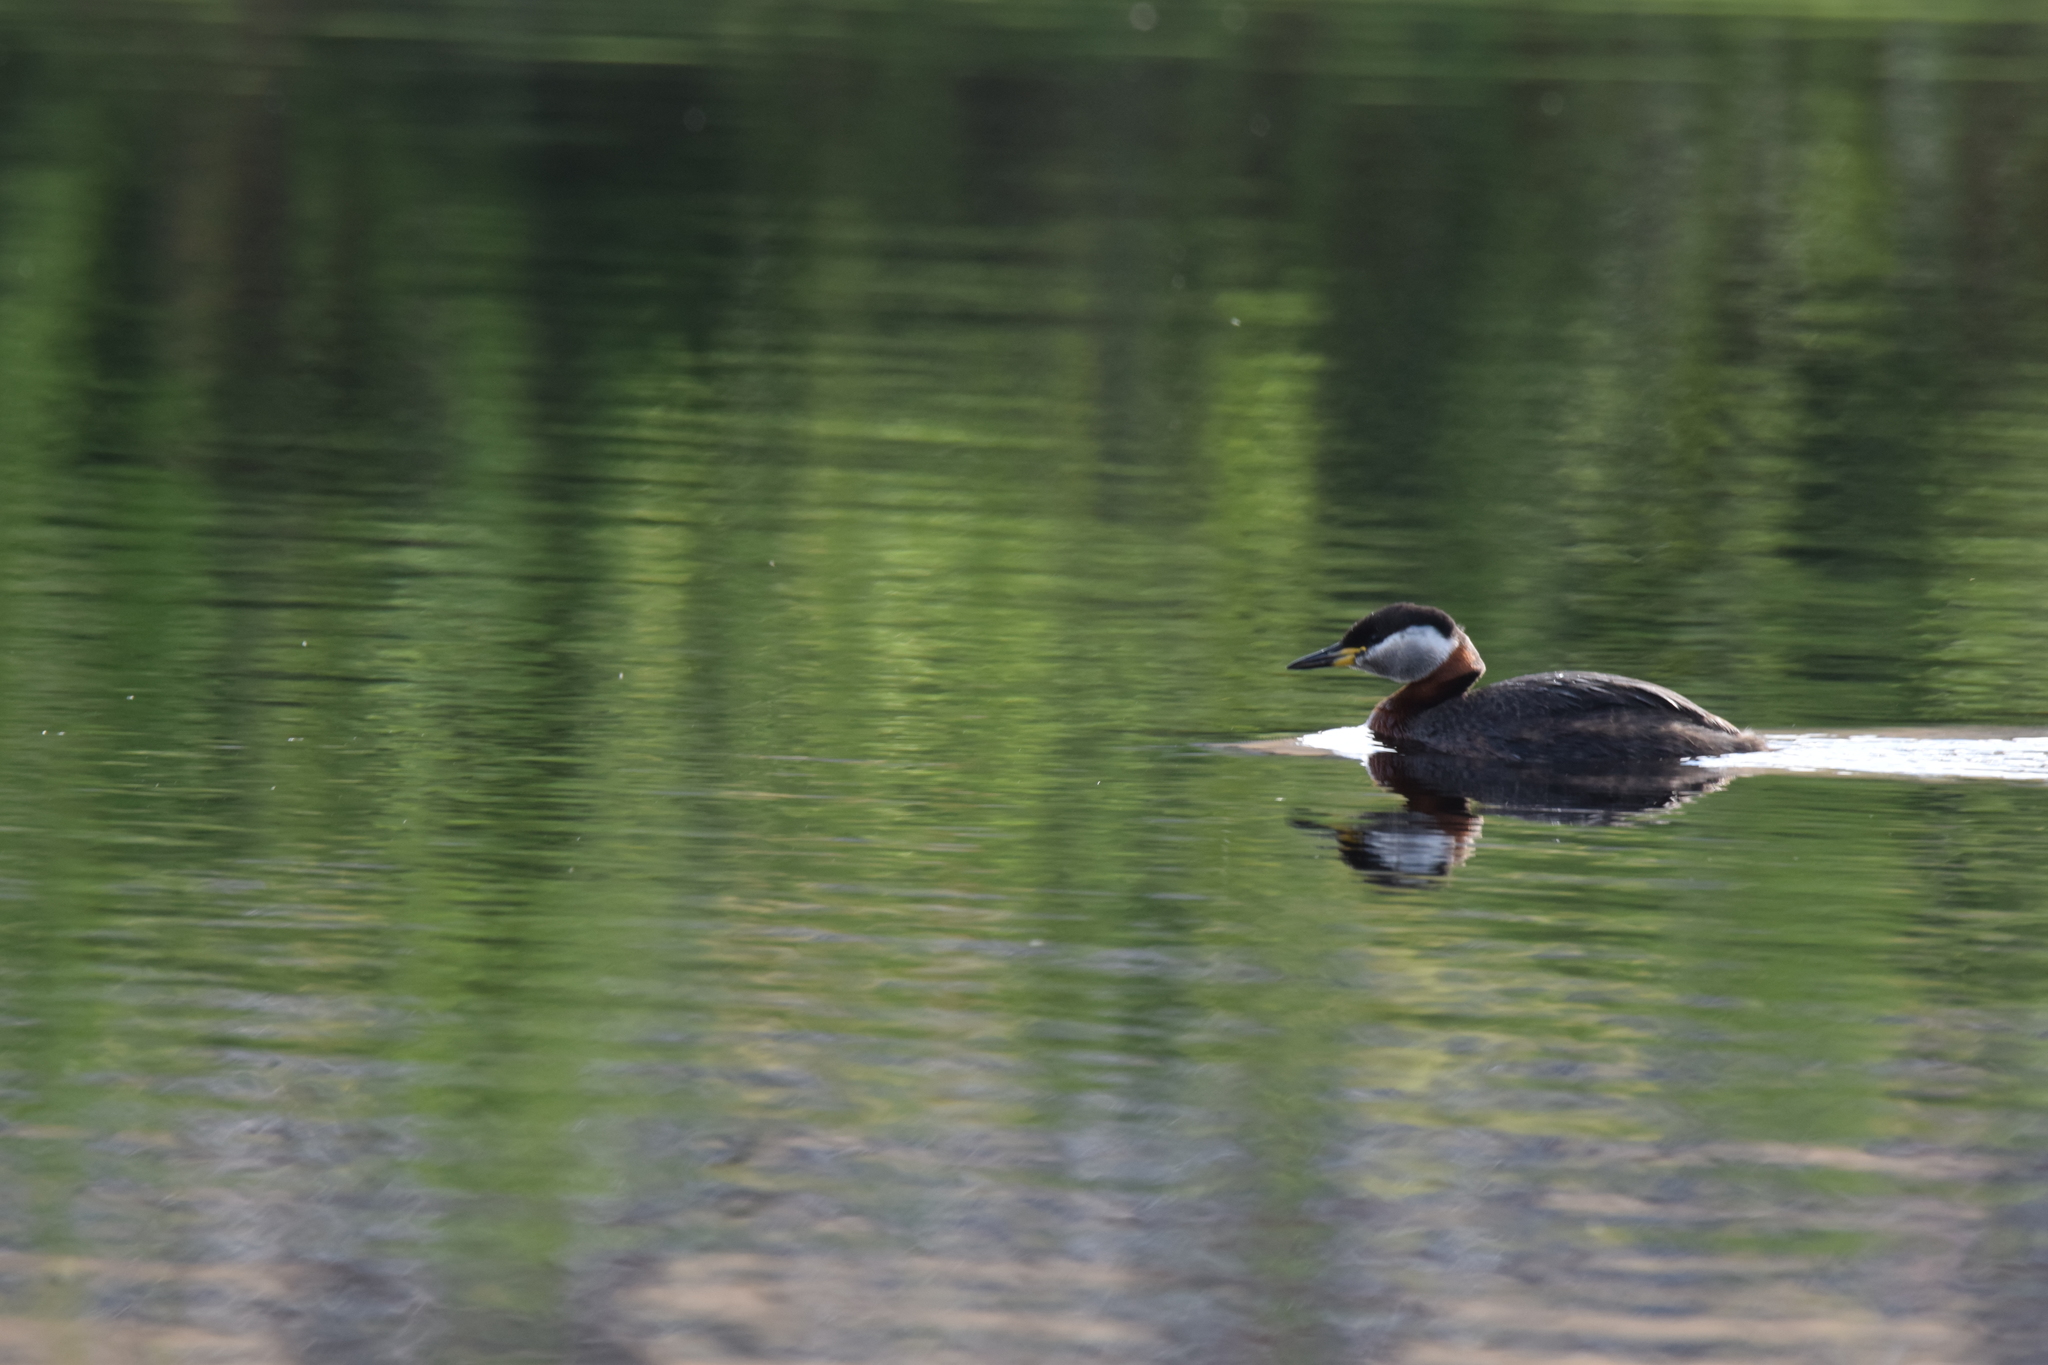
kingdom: Animalia
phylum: Chordata
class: Aves
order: Podicipediformes
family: Podicipedidae
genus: Podiceps
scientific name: Podiceps grisegena
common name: Red-necked grebe
